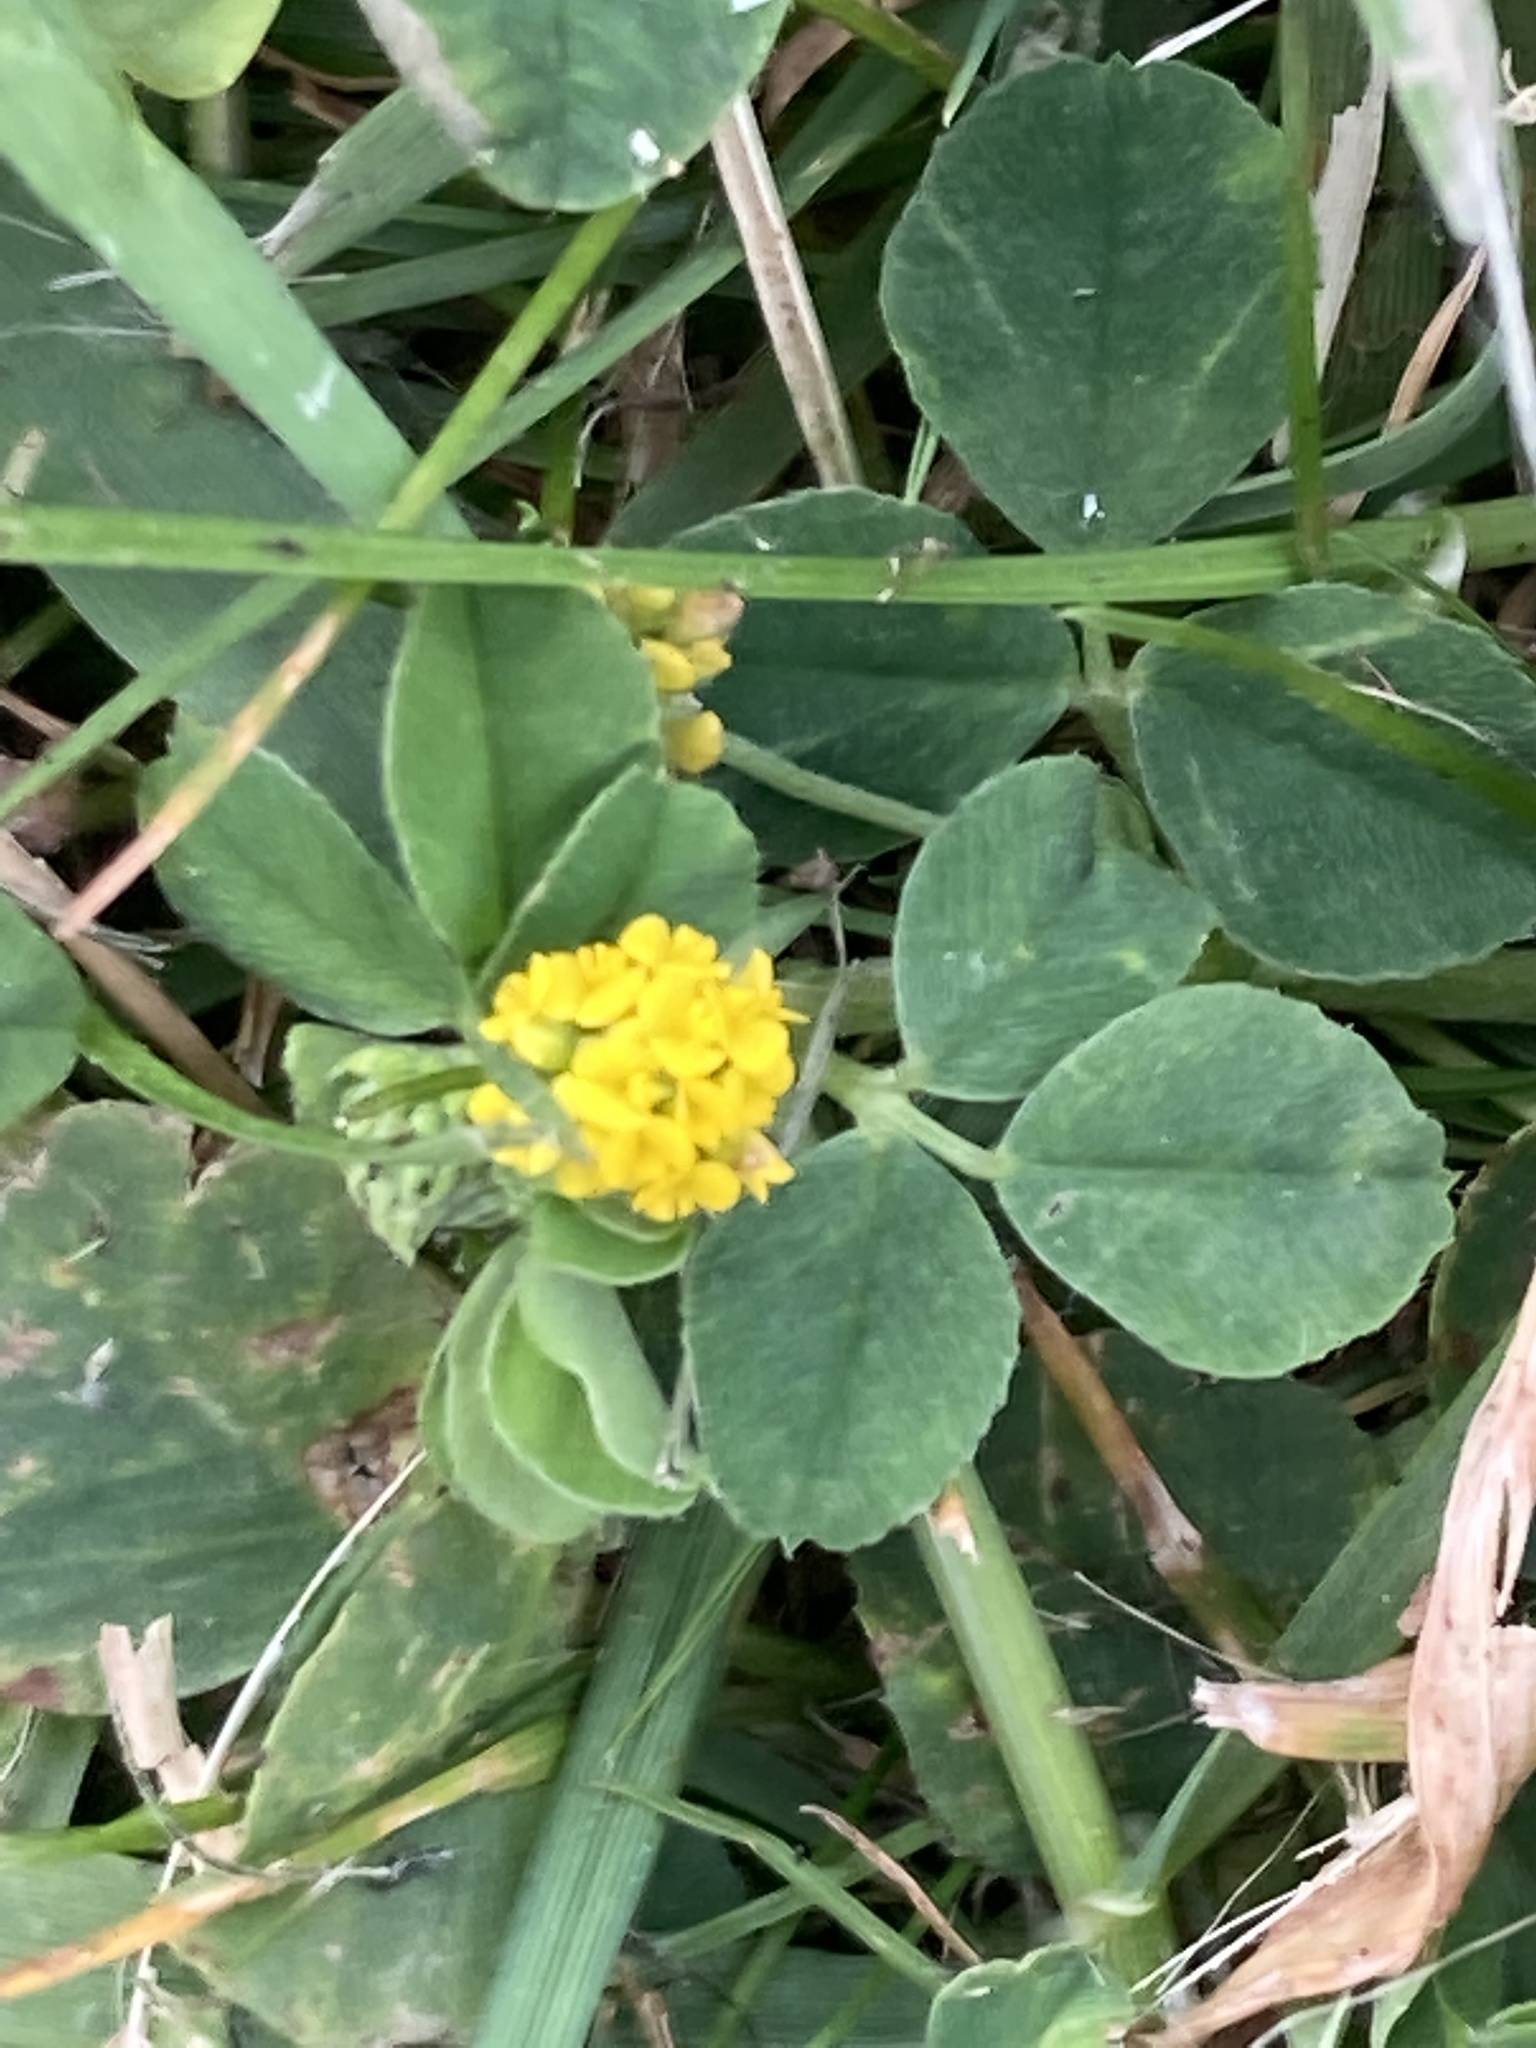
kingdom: Plantae
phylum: Tracheophyta
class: Magnoliopsida
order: Fabales
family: Fabaceae
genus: Medicago
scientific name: Medicago lupulina
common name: Black medick
